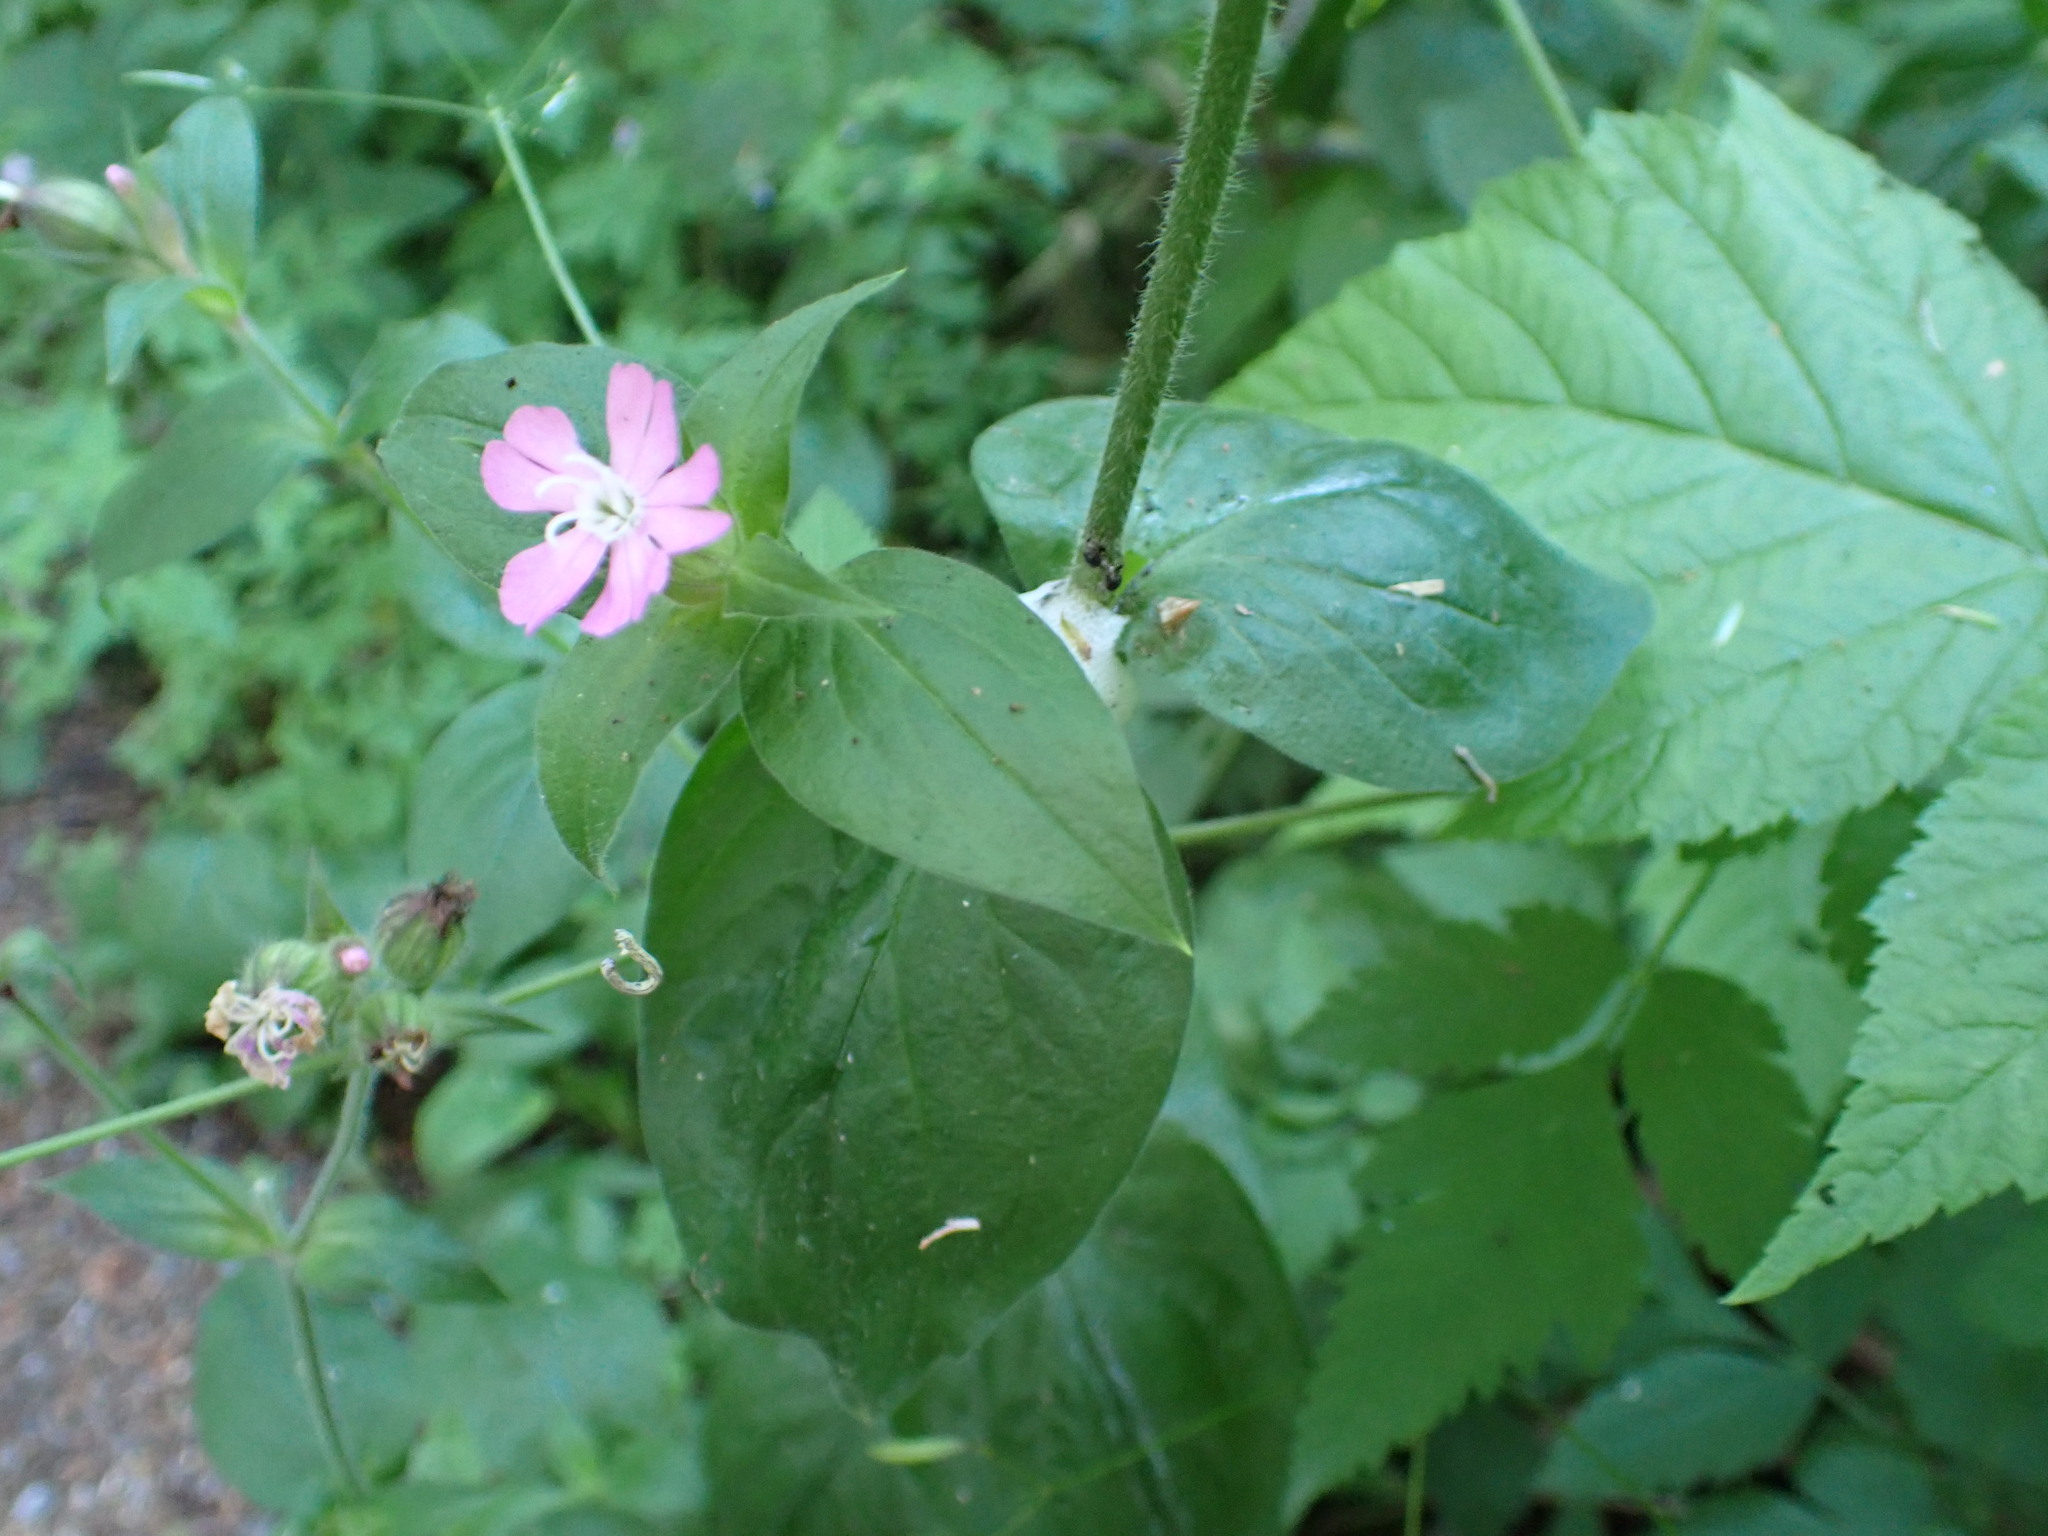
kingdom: Plantae
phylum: Tracheophyta
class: Magnoliopsida
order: Caryophyllales
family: Caryophyllaceae
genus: Silene
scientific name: Silene dioica
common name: Red campion
